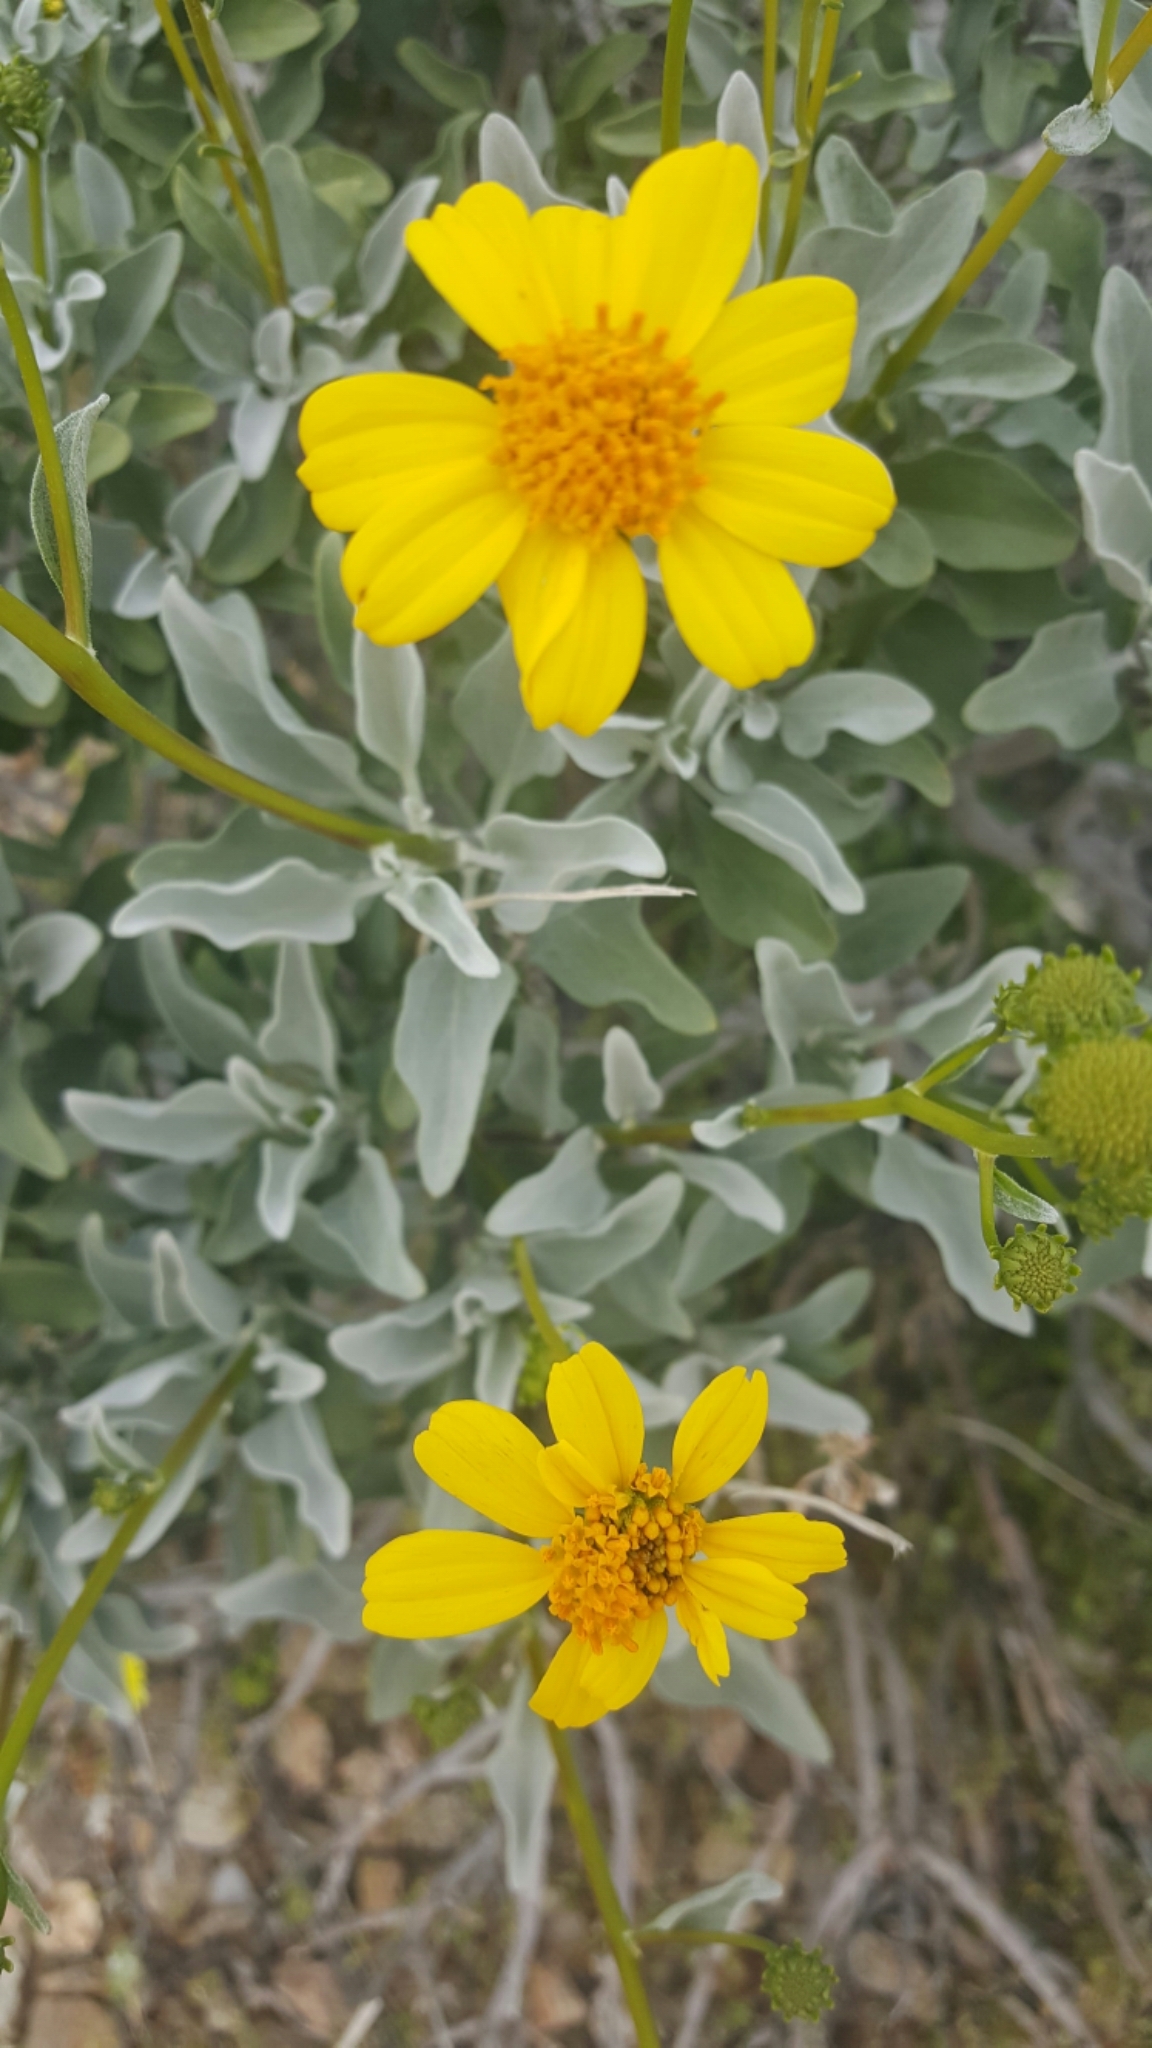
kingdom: Plantae
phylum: Tracheophyta
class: Magnoliopsida
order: Asterales
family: Asteraceae
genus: Encelia
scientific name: Encelia farinosa
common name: Brittlebush
